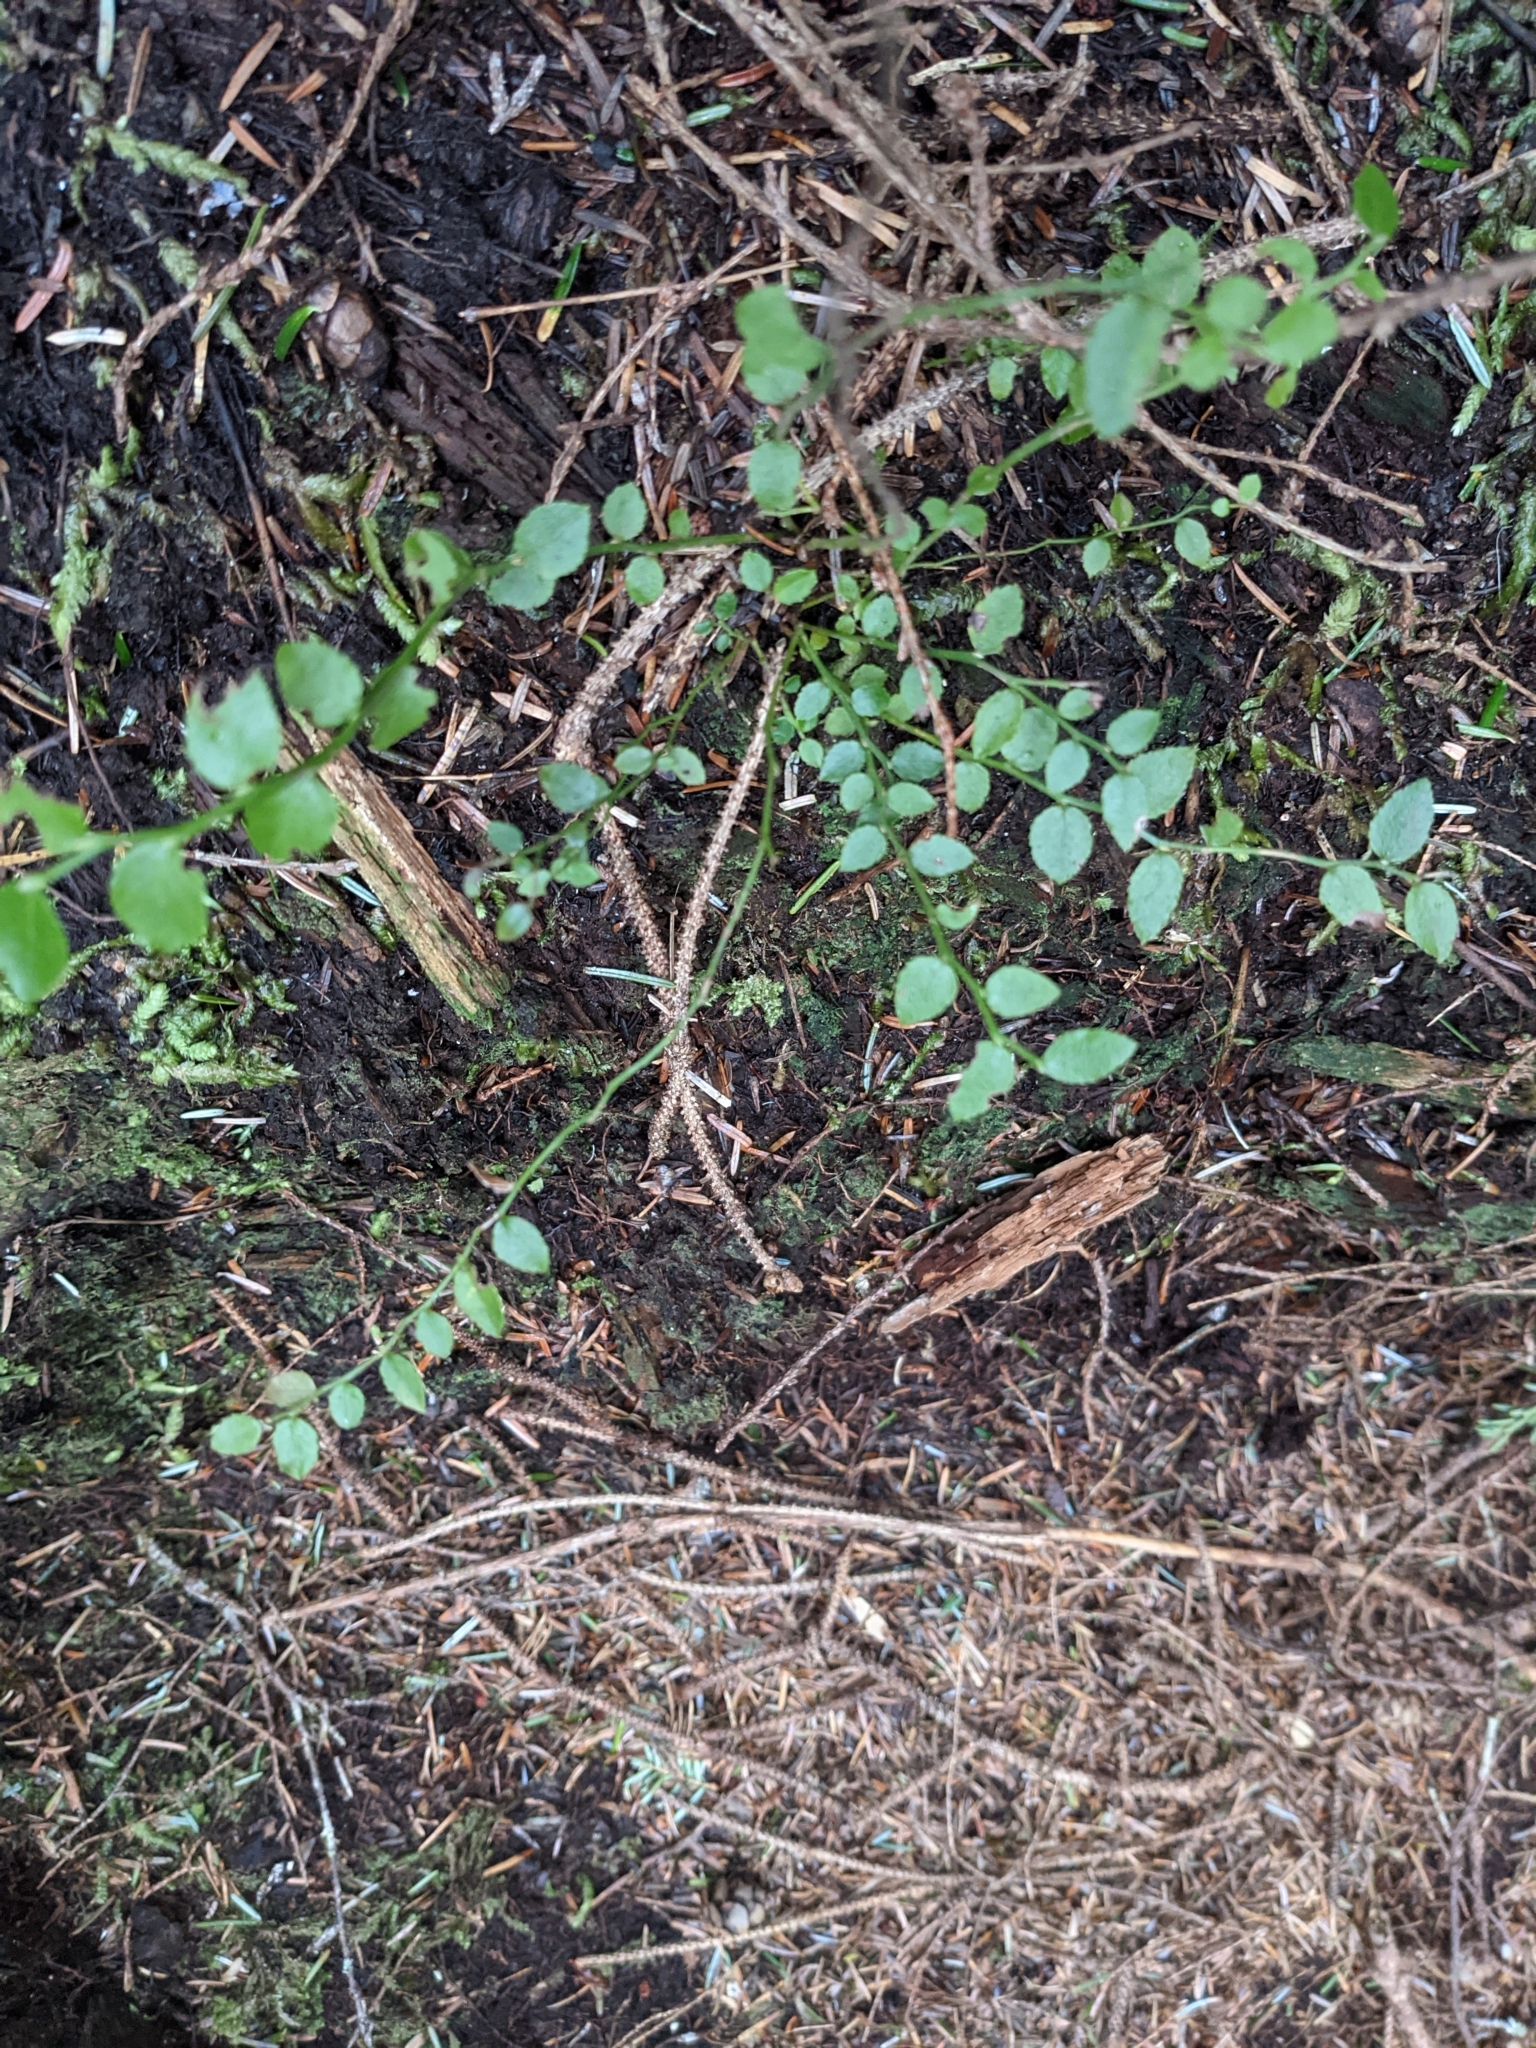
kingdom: Plantae
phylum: Tracheophyta
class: Magnoliopsida
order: Ericales
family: Ericaceae
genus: Vaccinium
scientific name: Vaccinium parvifolium
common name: Red-huckleberry
